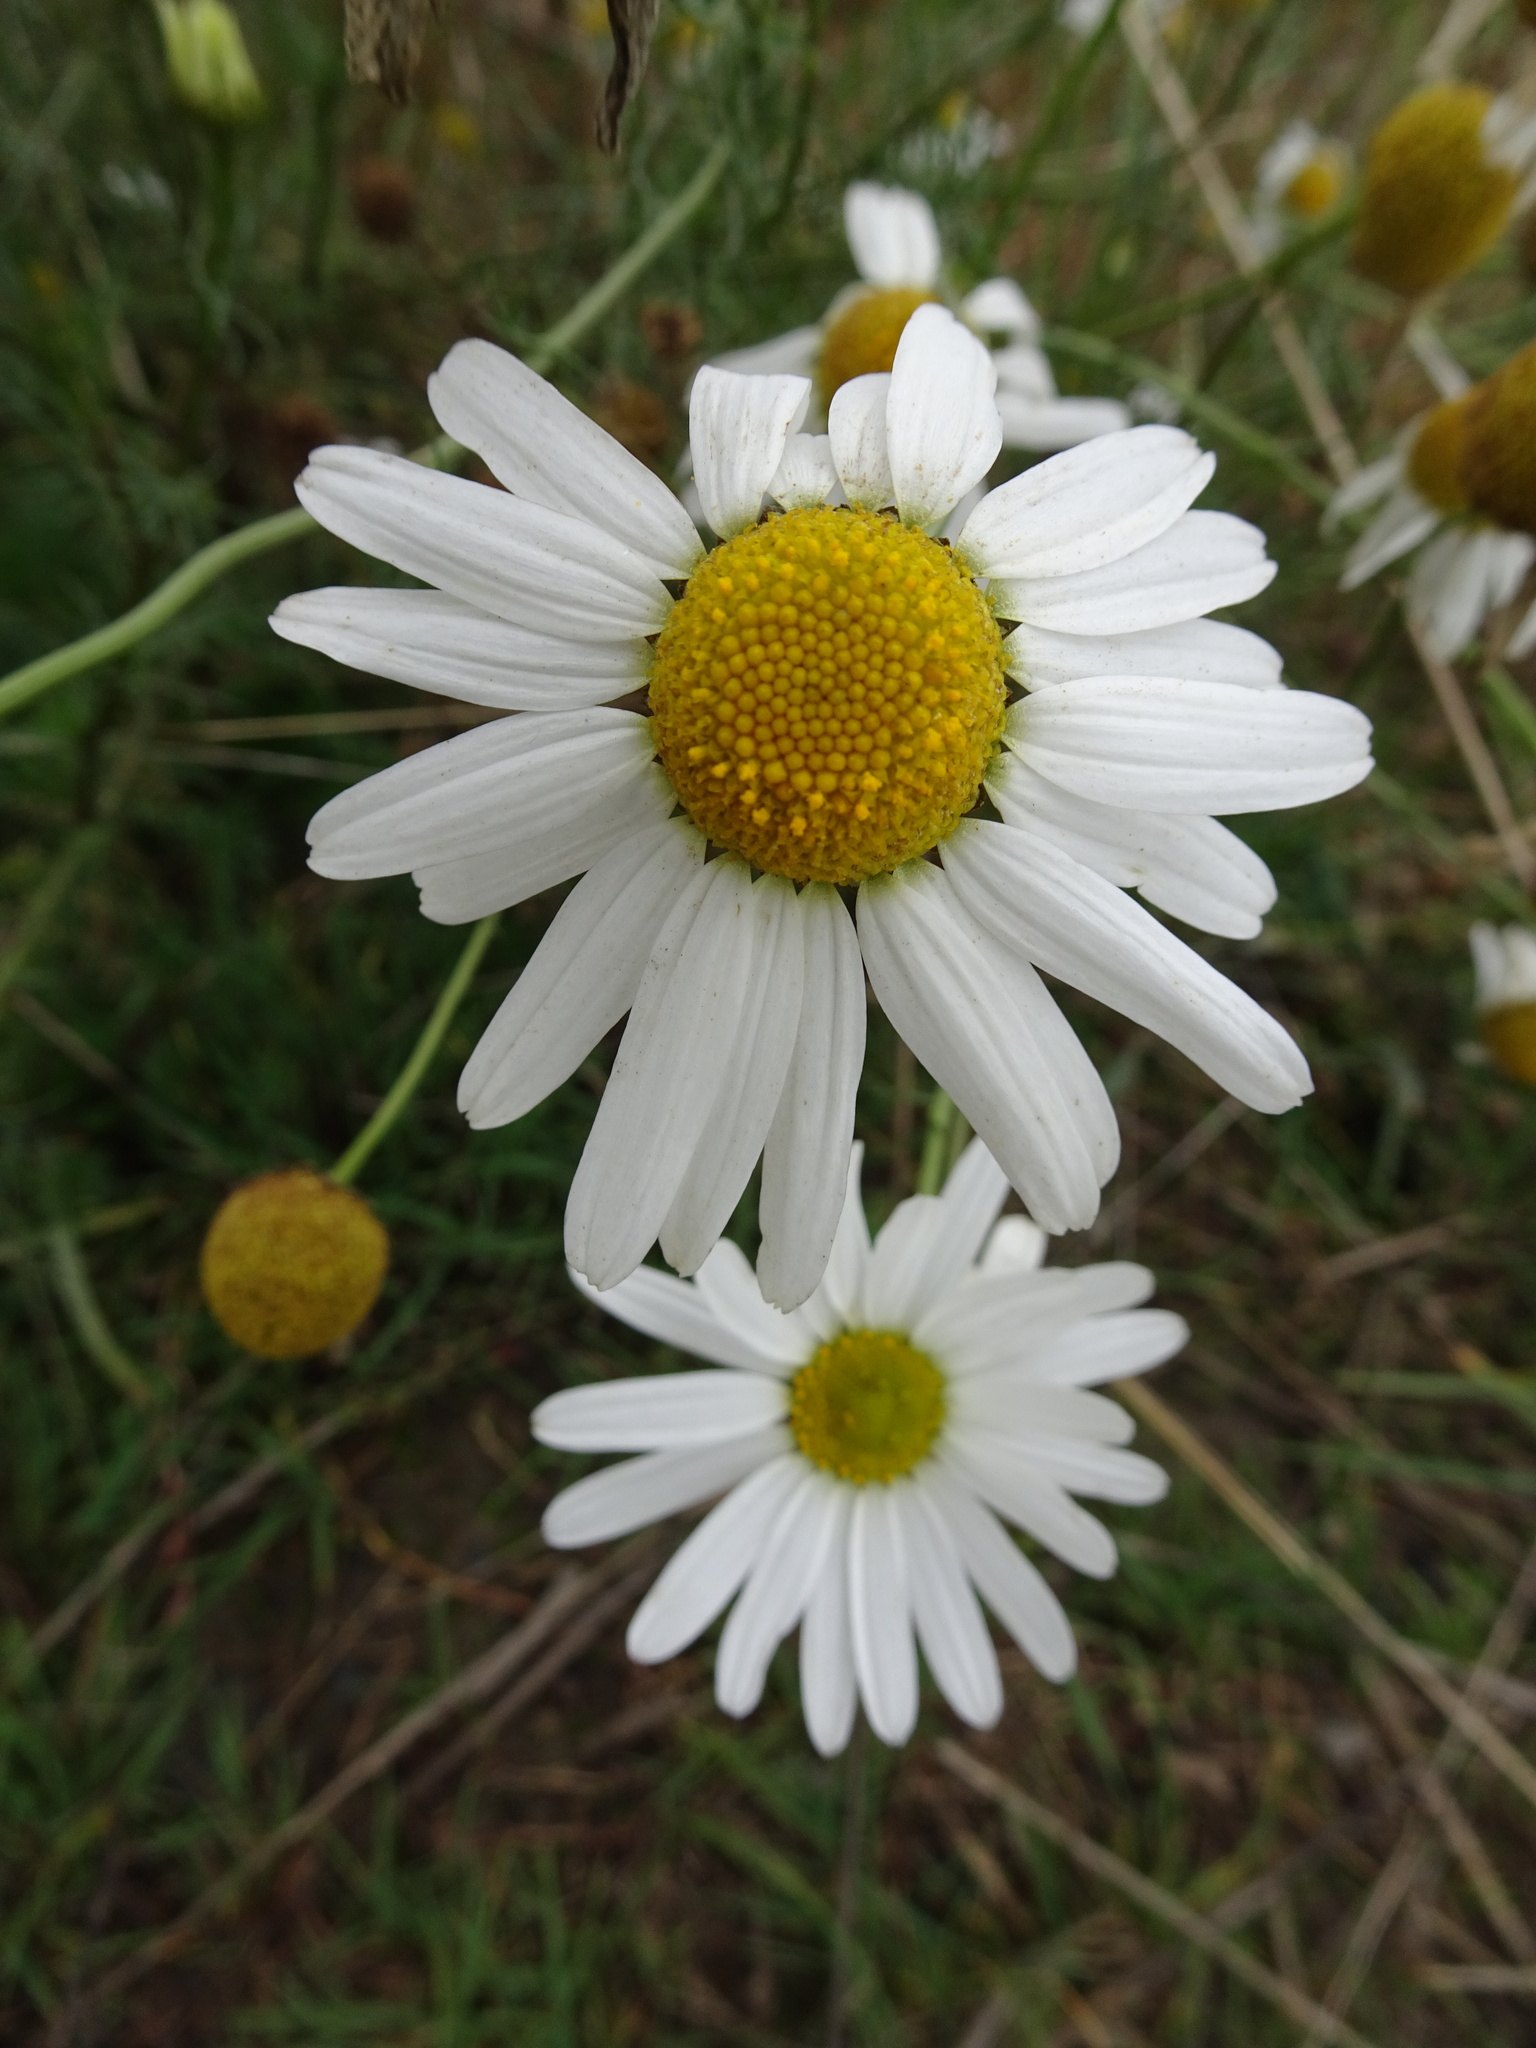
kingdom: Plantae
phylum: Tracheophyta
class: Magnoliopsida
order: Asterales
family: Asteraceae
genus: Tripleurospermum
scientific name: Tripleurospermum inodorum
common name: Scentless mayweed
